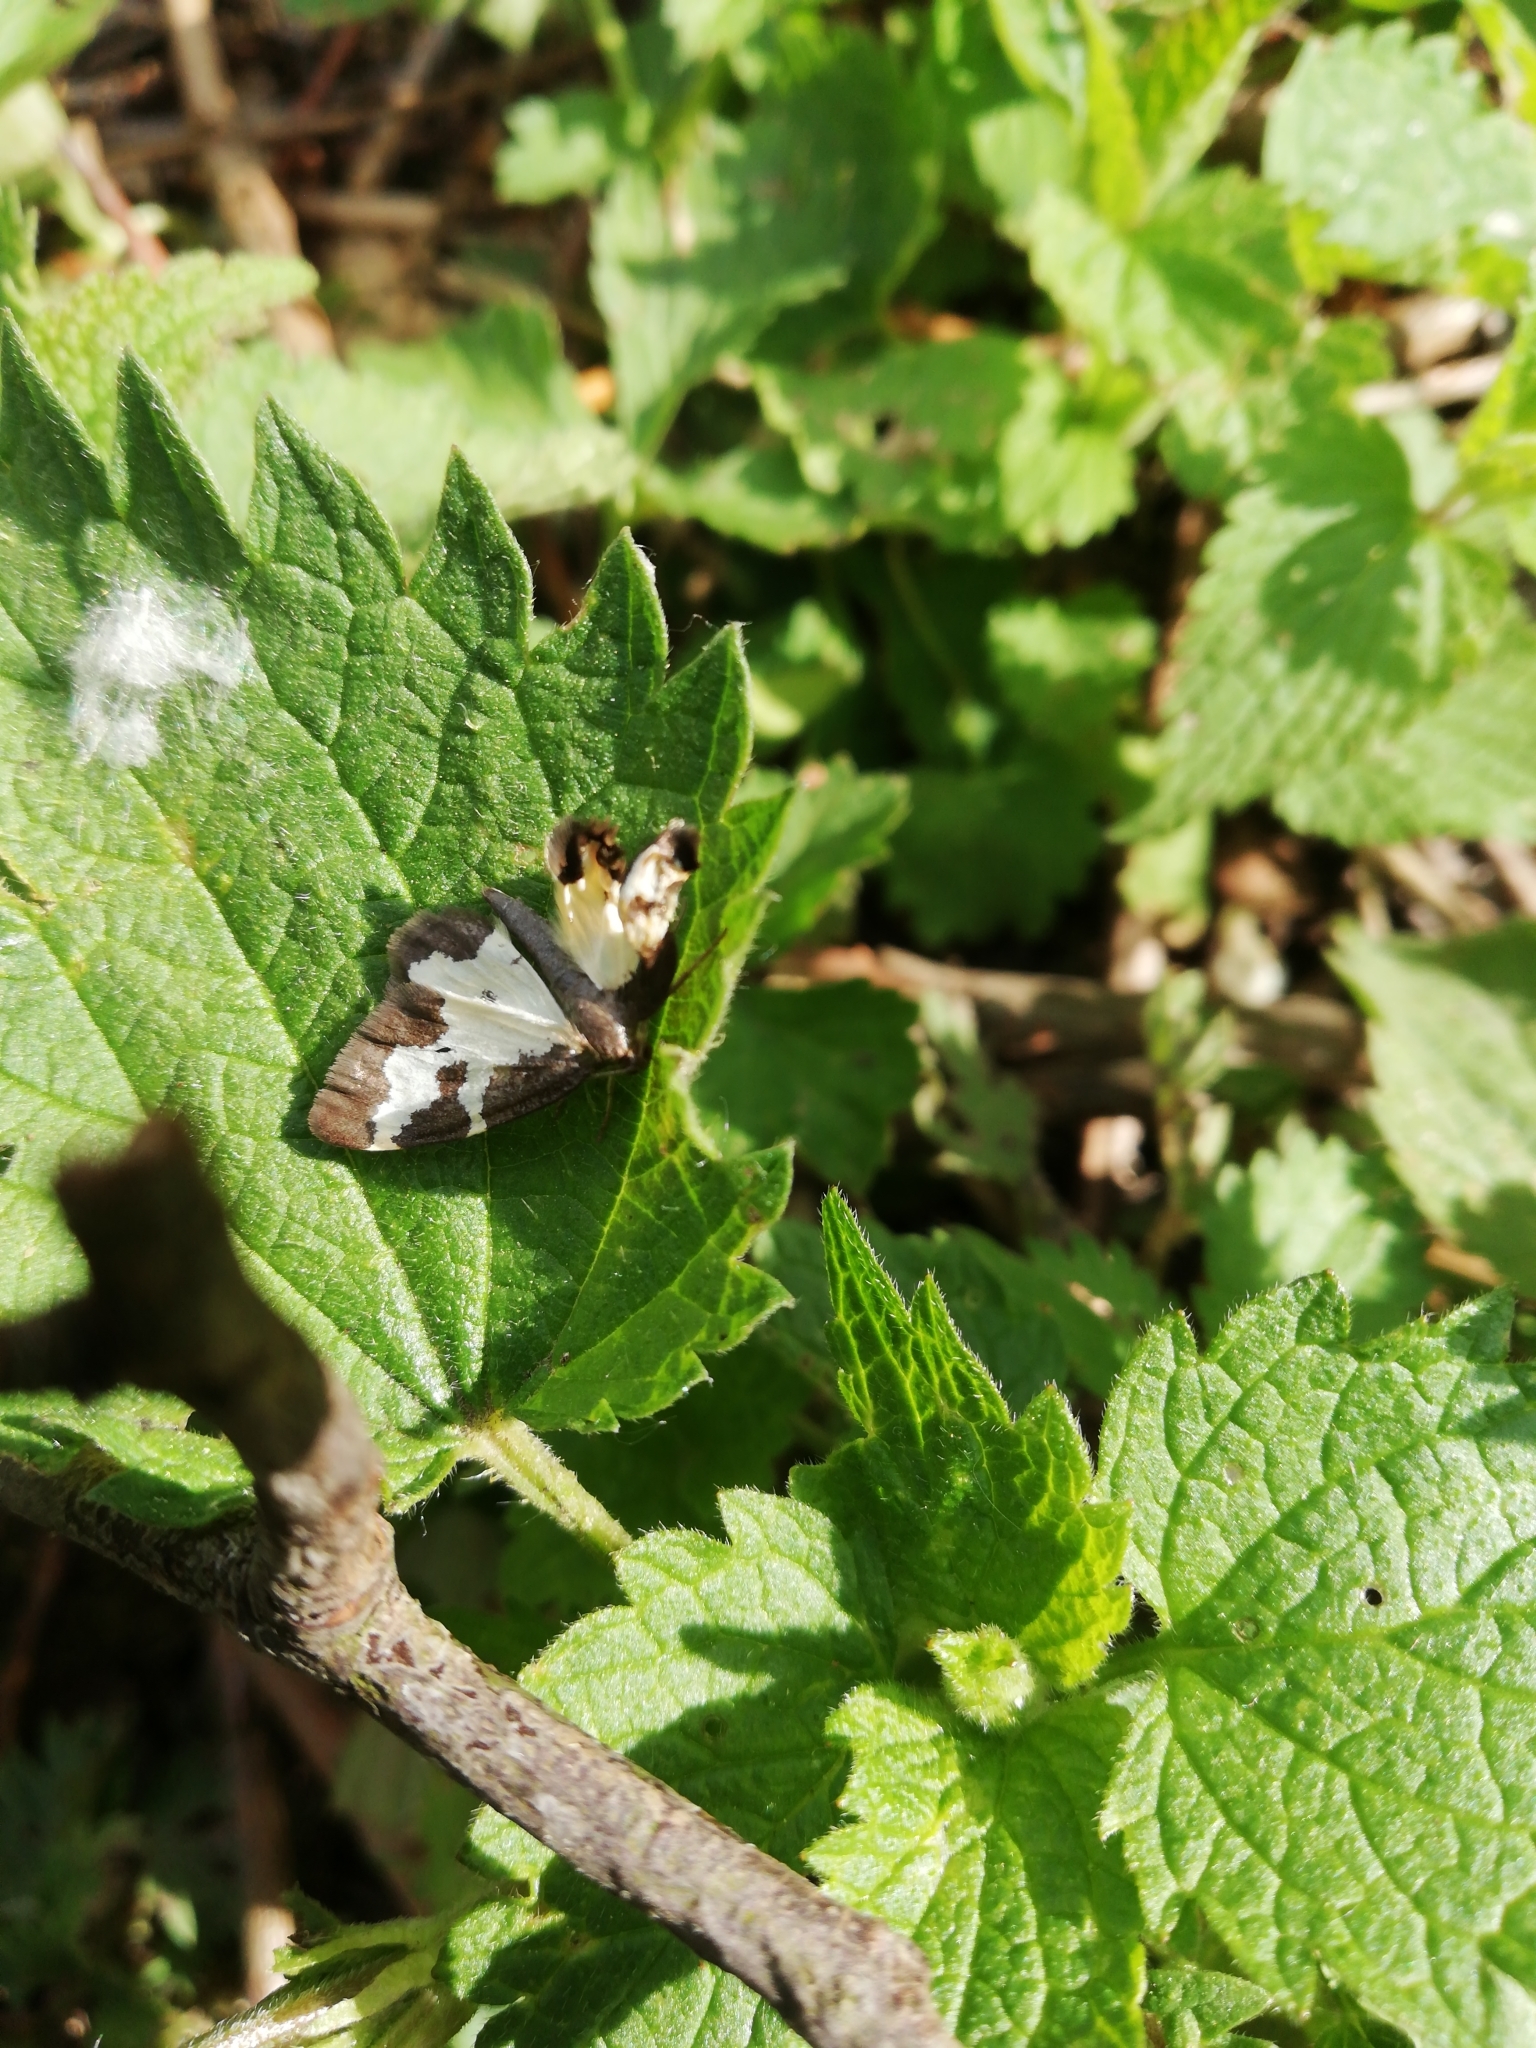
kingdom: Animalia
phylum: Arthropoda
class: Insecta
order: Lepidoptera
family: Geometridae
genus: Lomaspilis
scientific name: Lomaspilis marginata
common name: Clouded border
